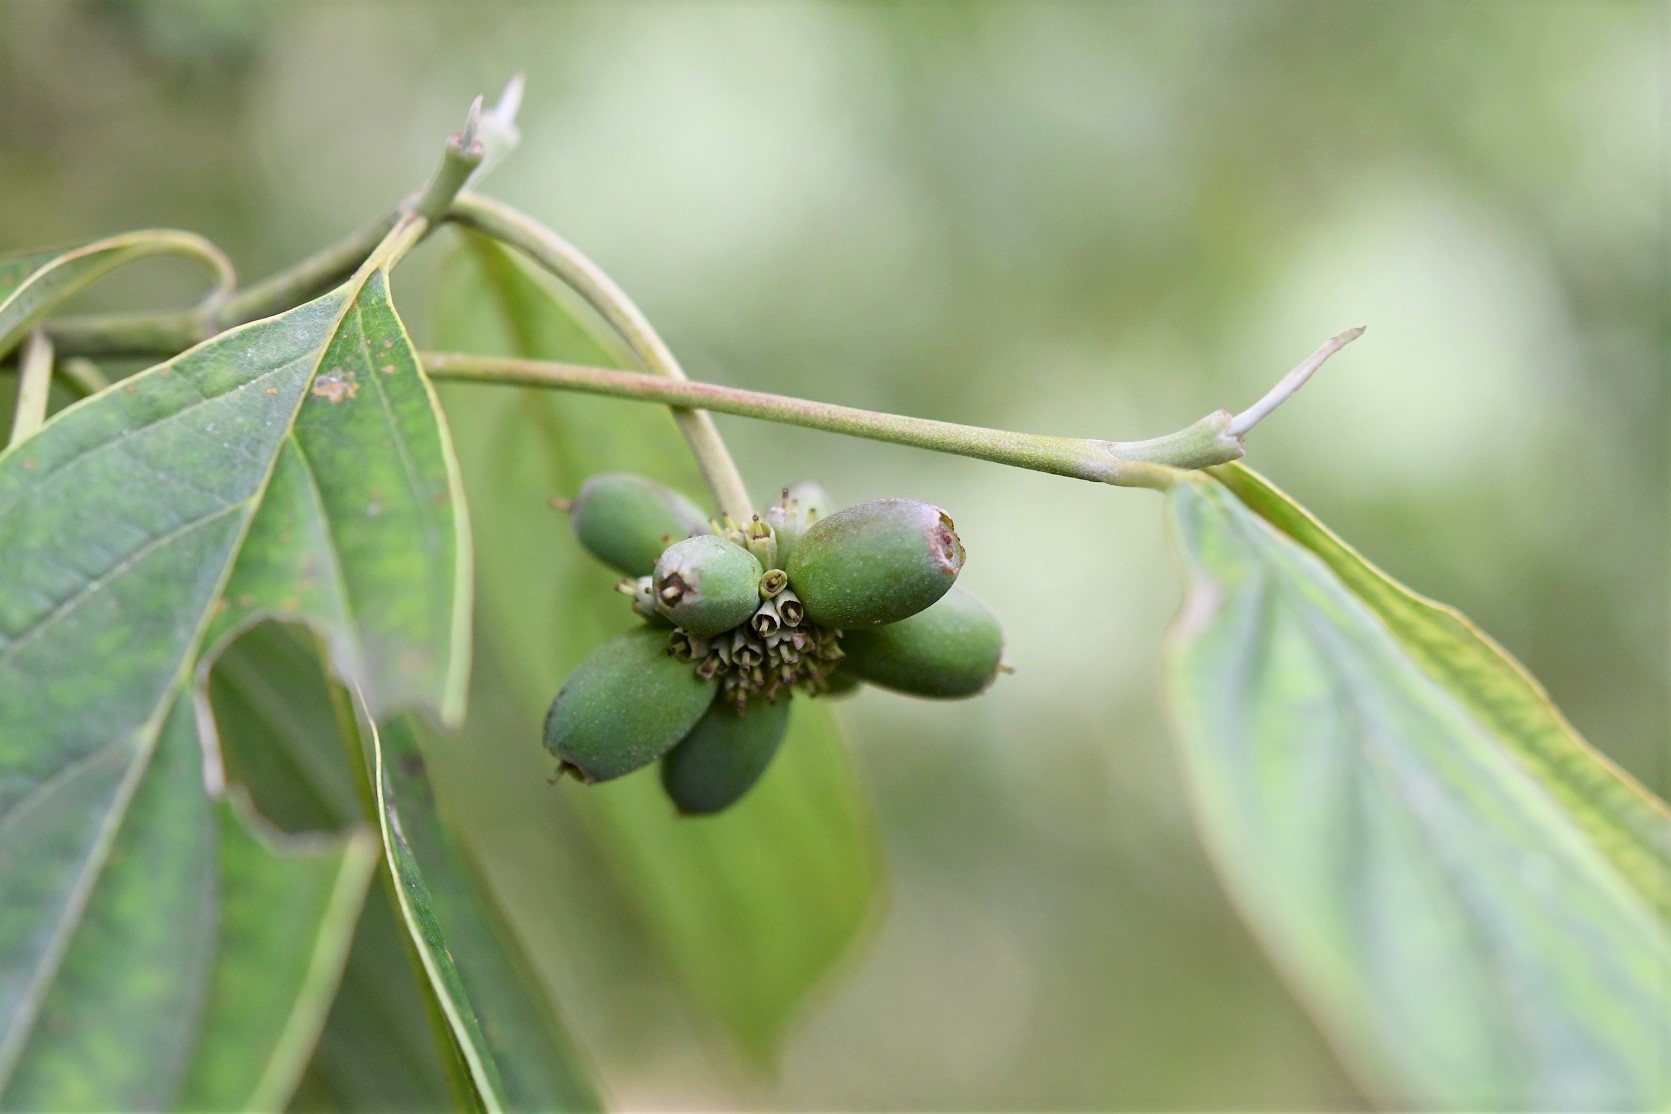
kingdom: Plantae
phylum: Tracheophyta
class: Magnoliopsida
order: Cornales
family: Cornaceae
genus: Cornus
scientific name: Cornus disciflora
